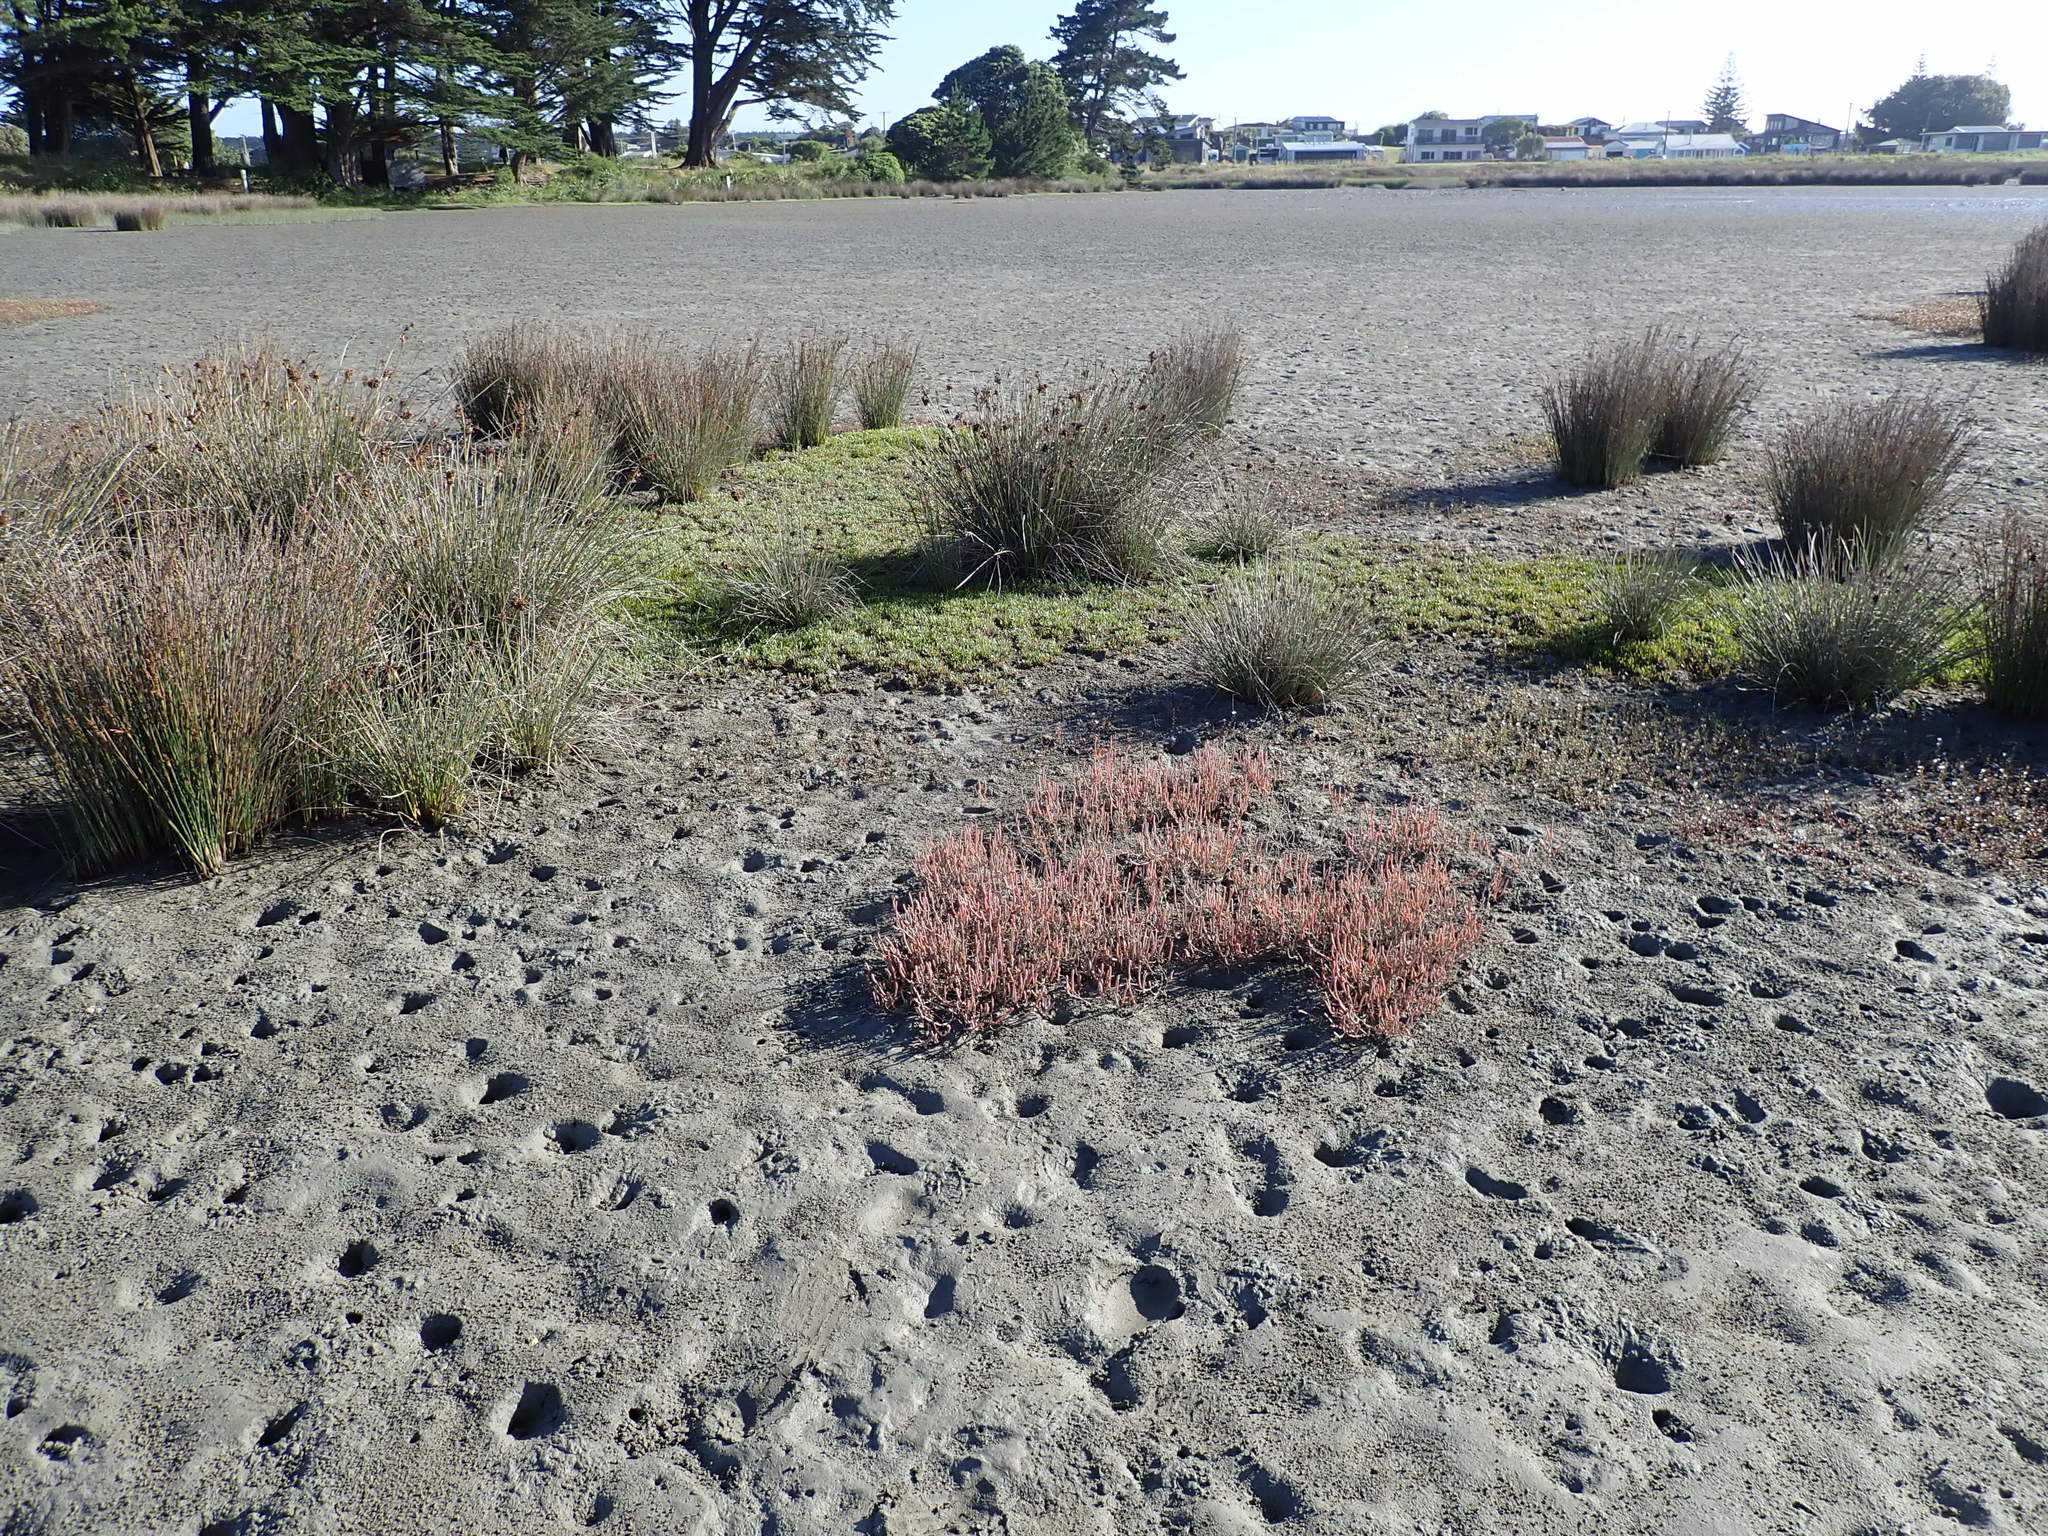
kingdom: Plantae
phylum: Tracheophyta
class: Magnoliopsida
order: Caryophyllales
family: Amaranthaceae
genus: Salicornia
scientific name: Salicornia quinqueflora
